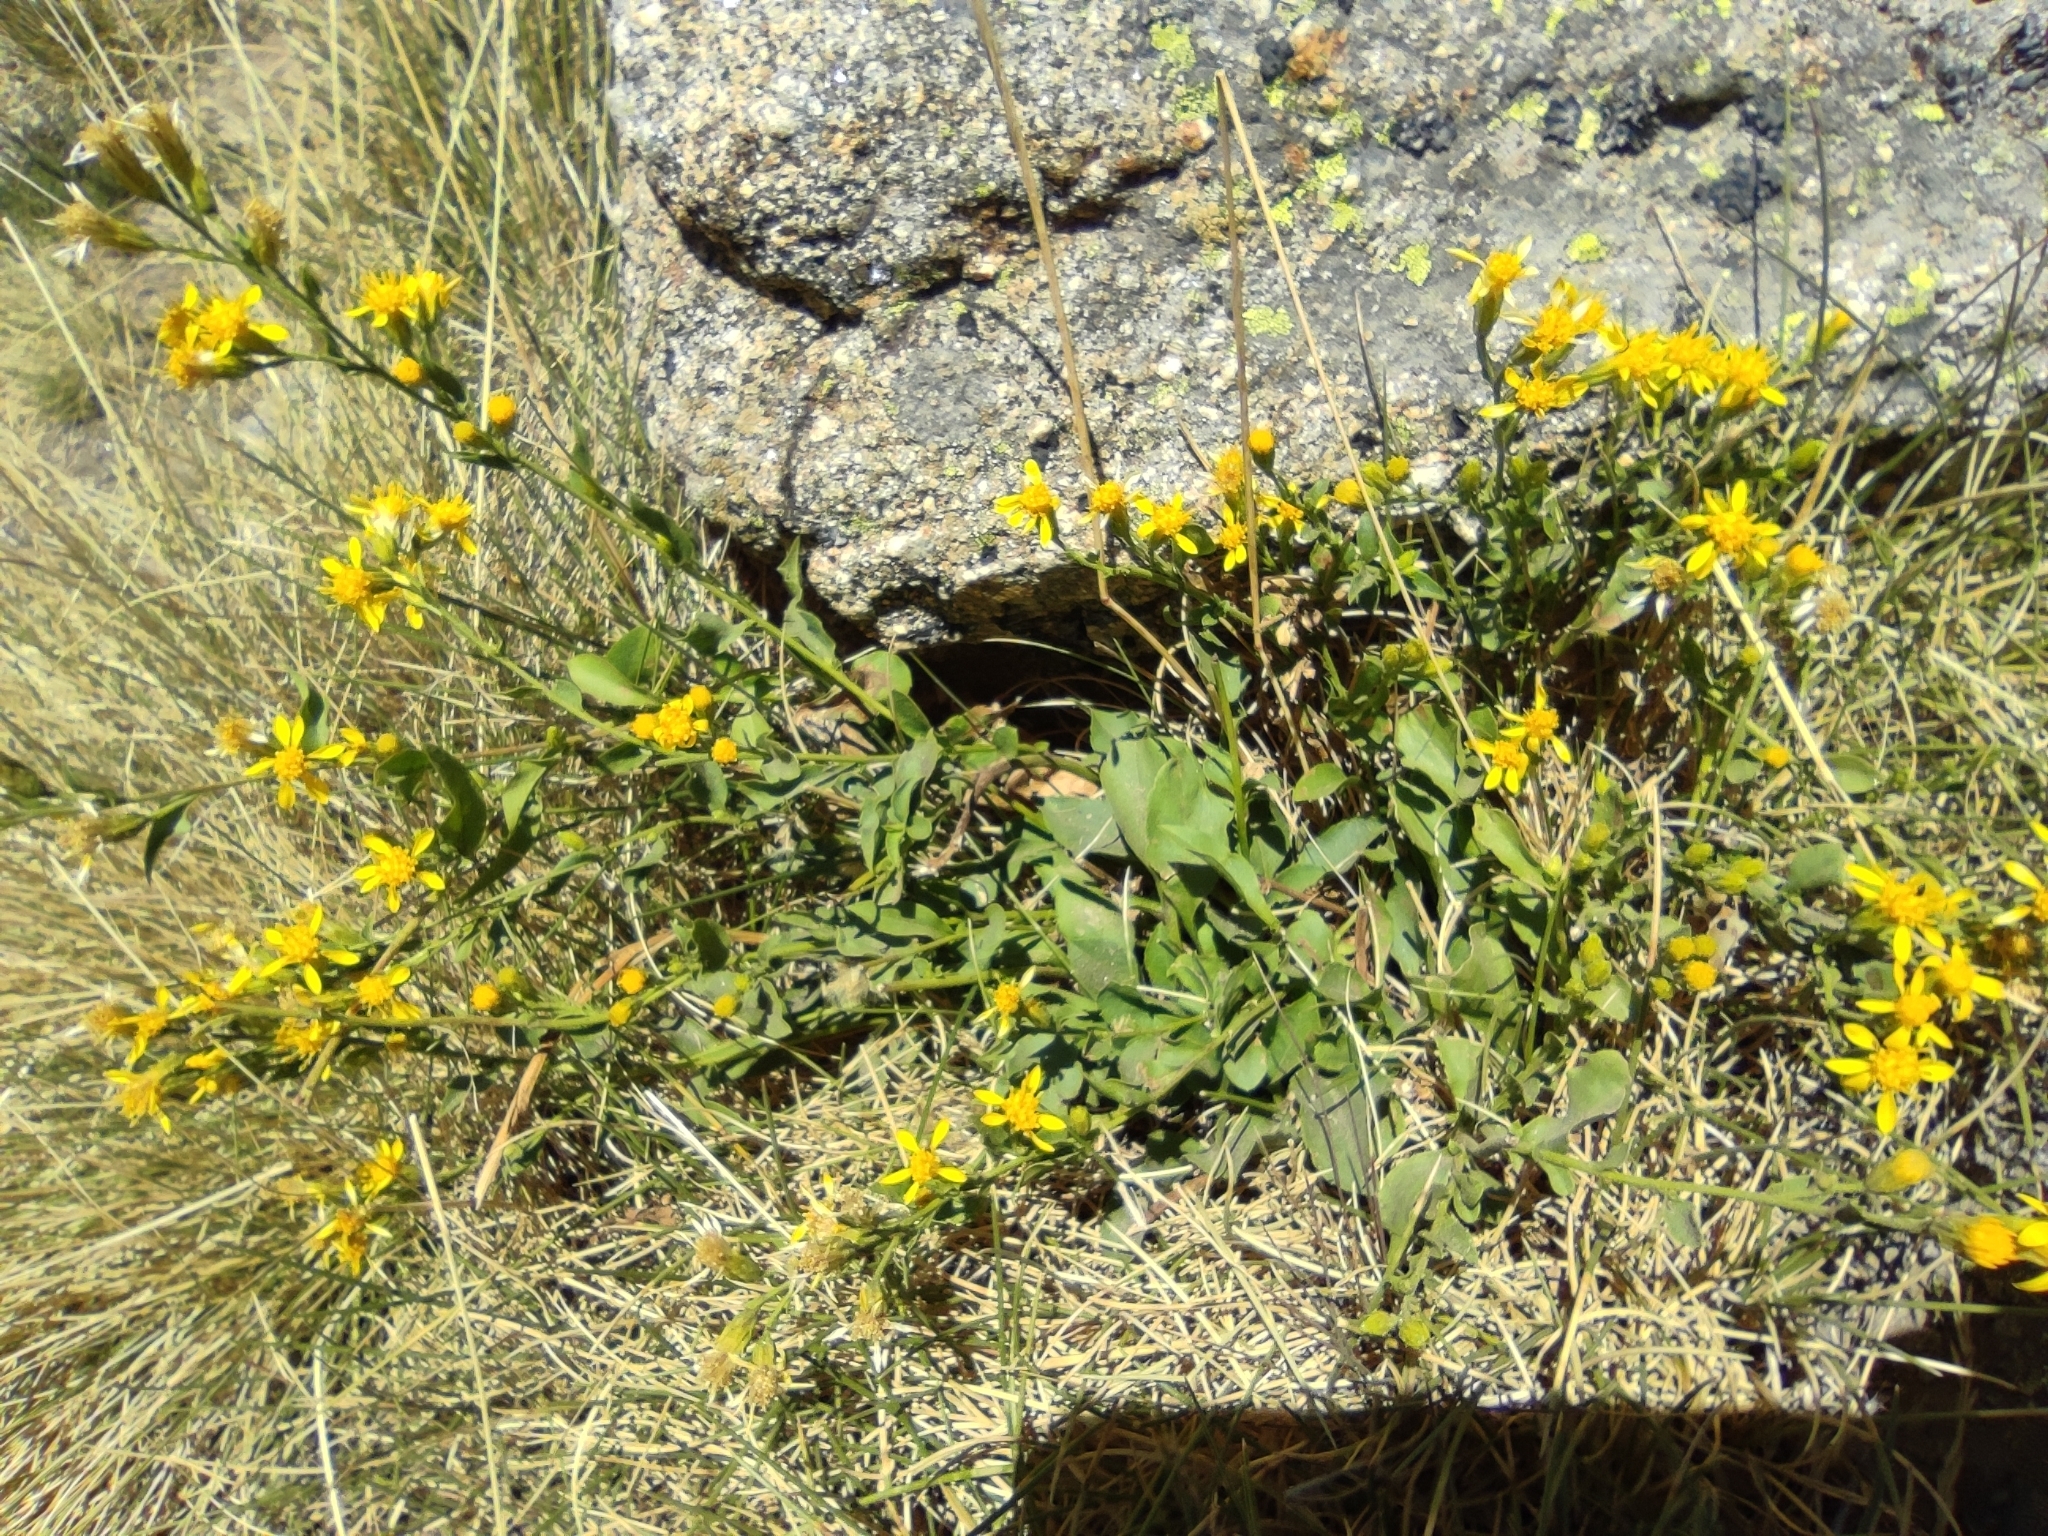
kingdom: Plantae
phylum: Tracheophyta
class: Magnoliopsida
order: Asterales
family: Asteraceae
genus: Solidago
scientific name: Solidago virgaurea
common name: Goldenrod
